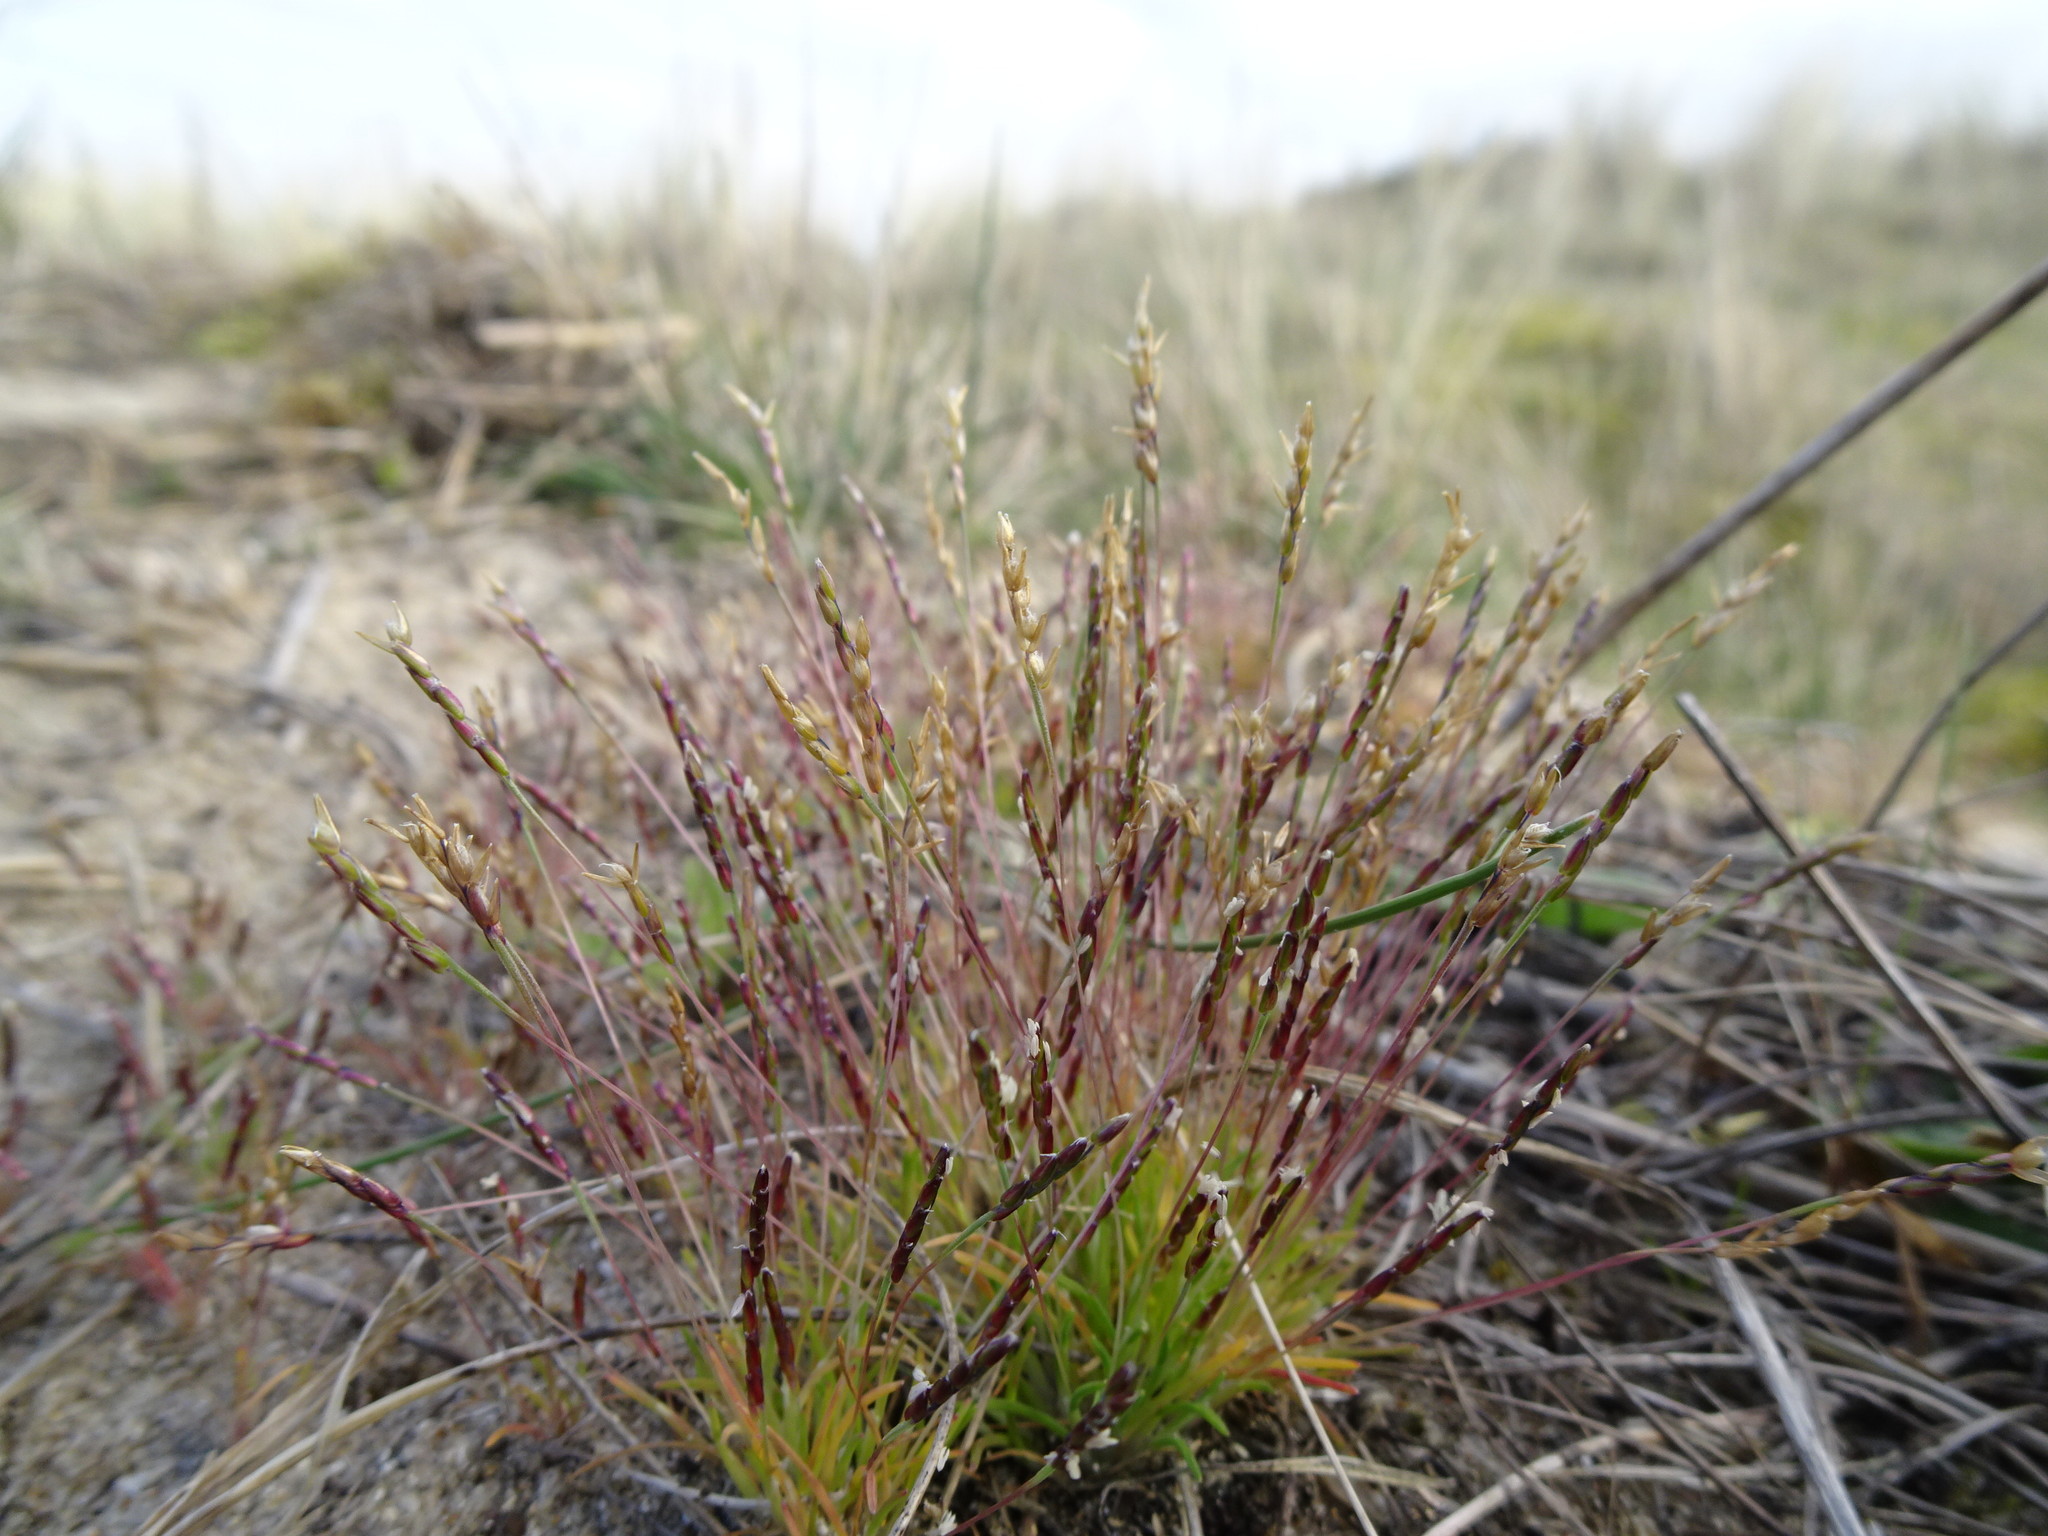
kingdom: Plantae
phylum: Tracheophyta
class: Liliopsida
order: Poales
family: Poaceae
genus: Mibora
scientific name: Mibora minima
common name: Early sand-grass
